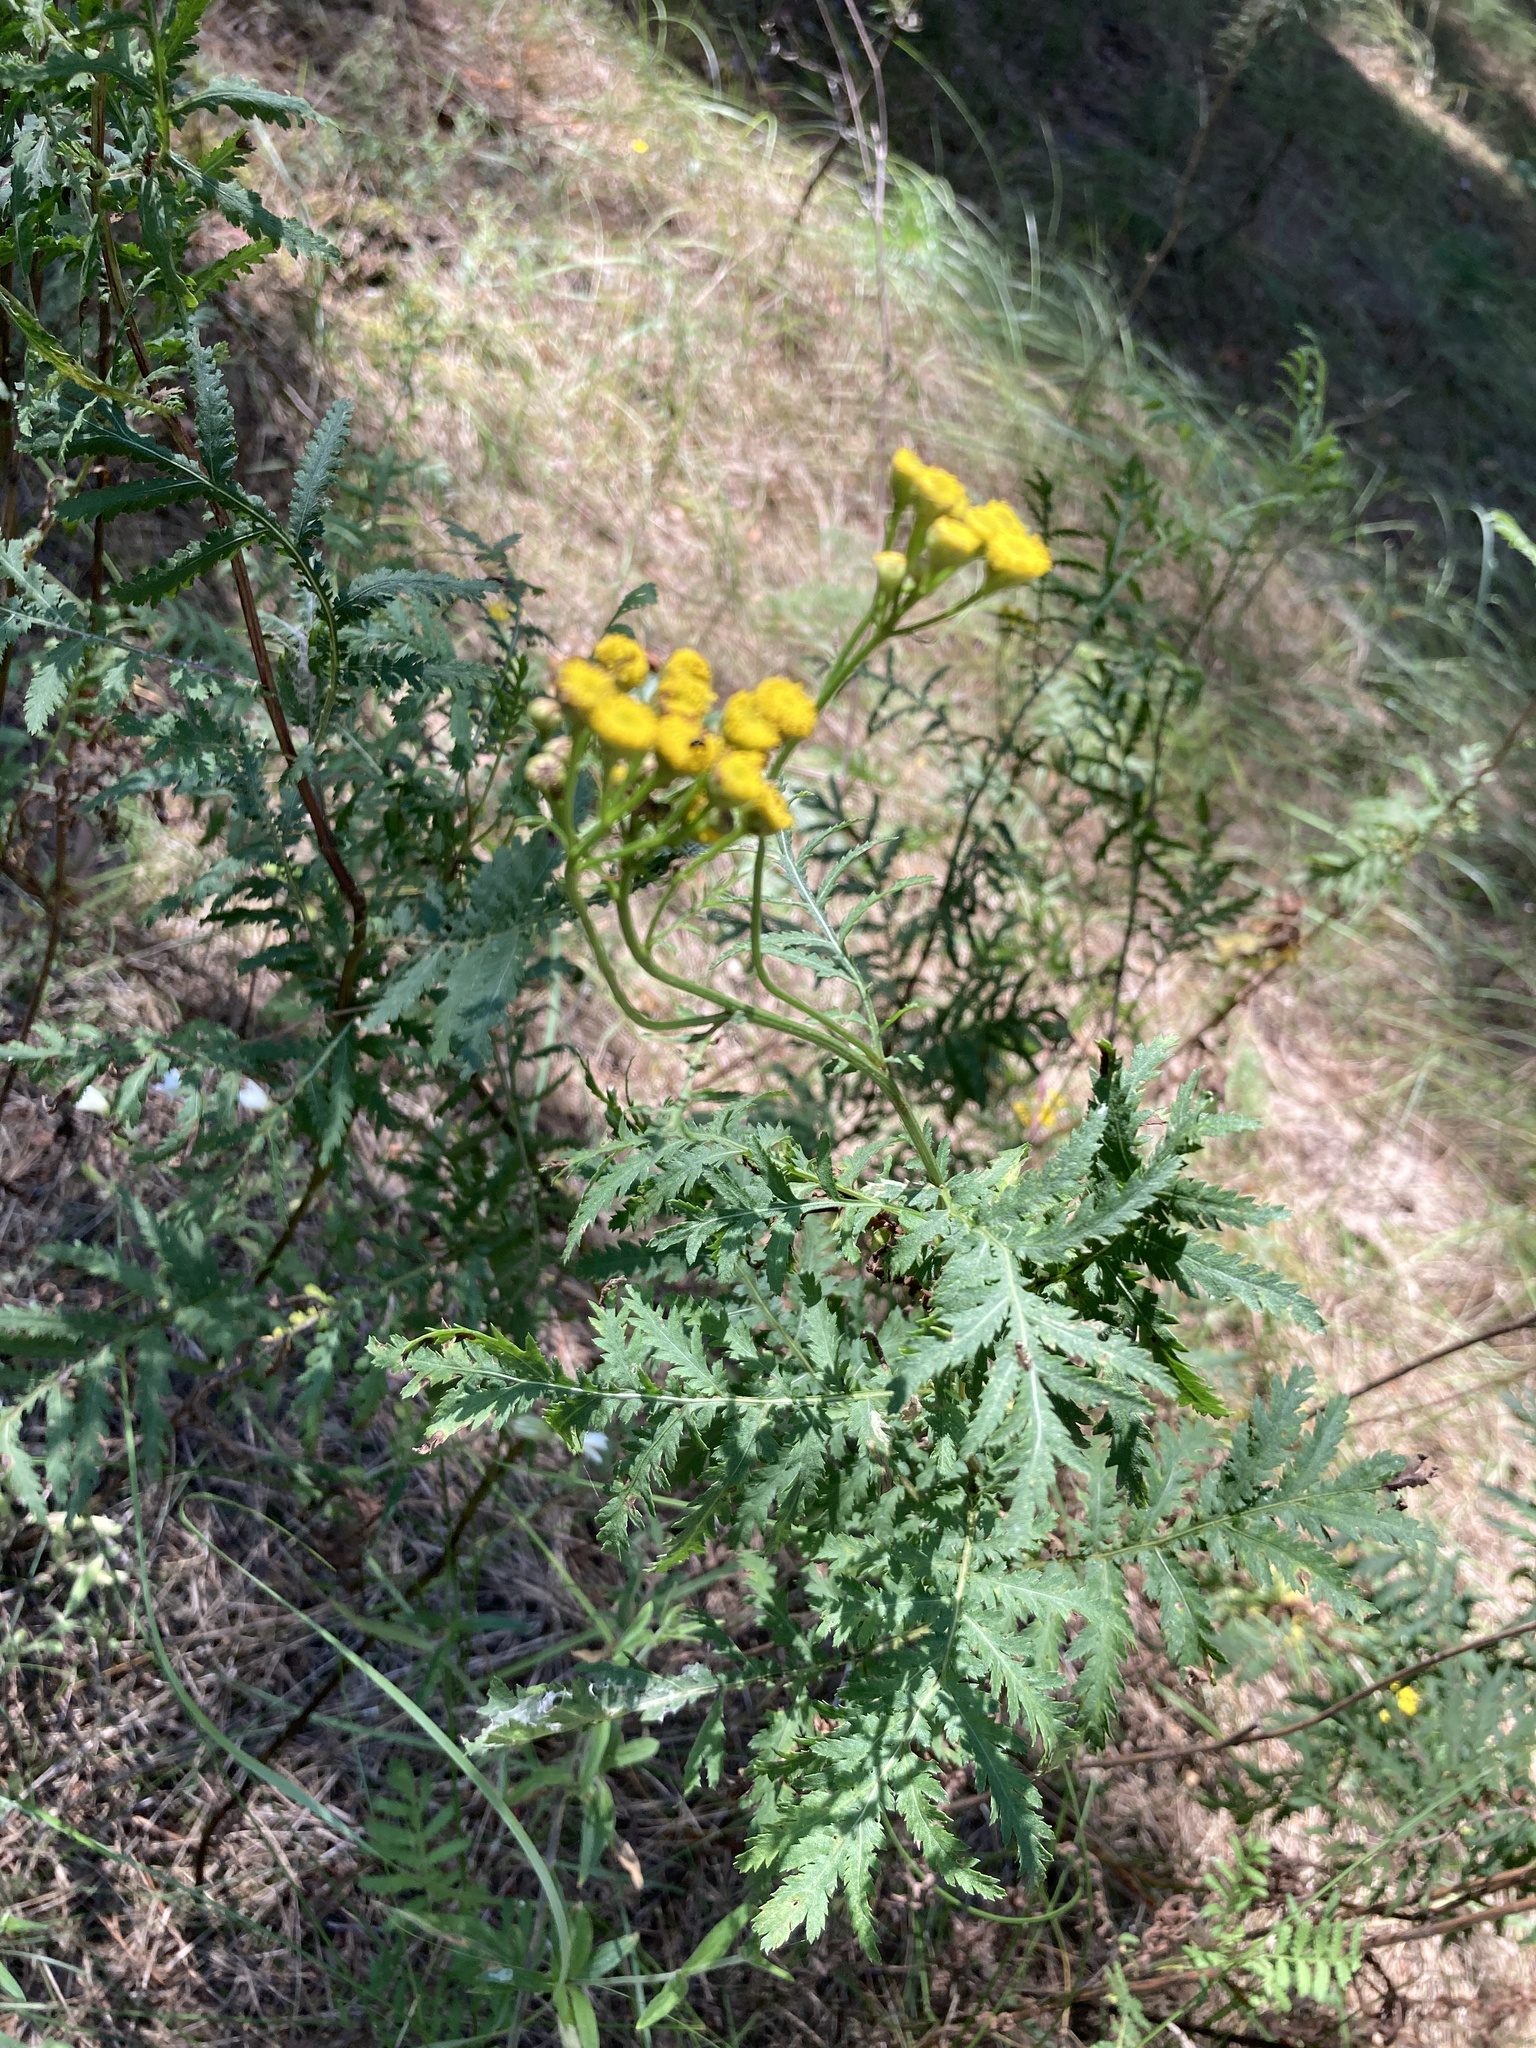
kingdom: Plantae
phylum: Tracheophyta
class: Magnoliopsida
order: Asterales
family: Asteraceae
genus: Tanacetum
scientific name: Tanacetum vulgare
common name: Common tansy
